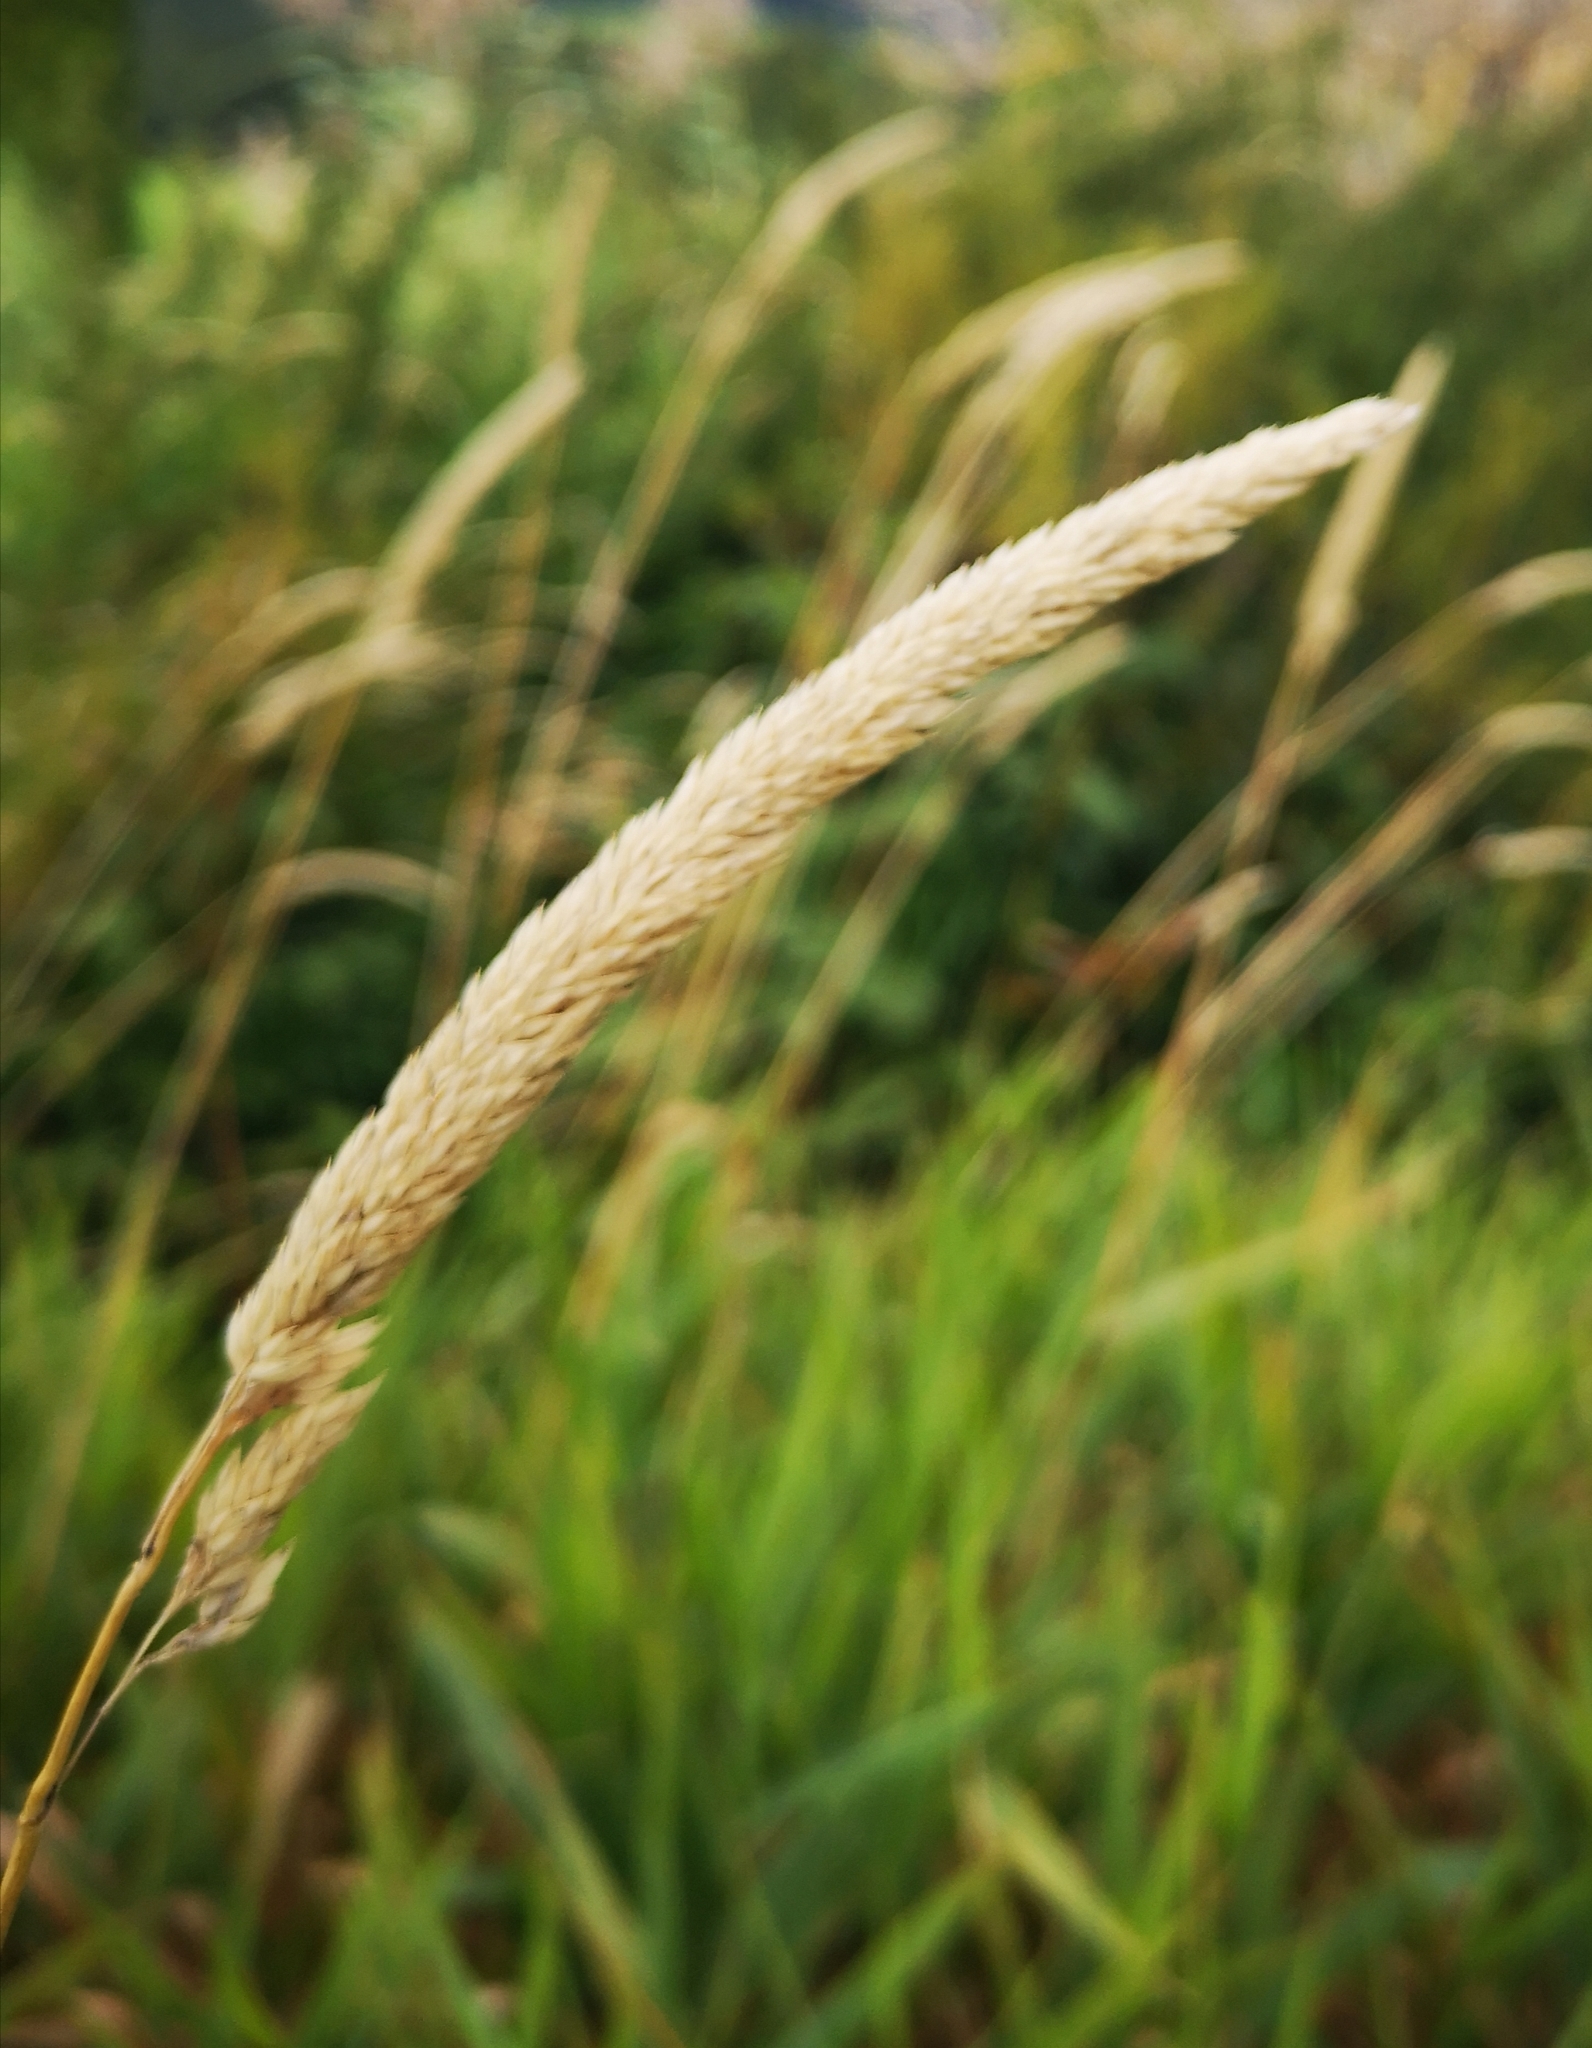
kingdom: Plantae
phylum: Tracheophyta
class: Liliopsida
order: Poales
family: Poaceae
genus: Phalaris
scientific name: Phalaris arundinacea
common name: Reed canary-grass
